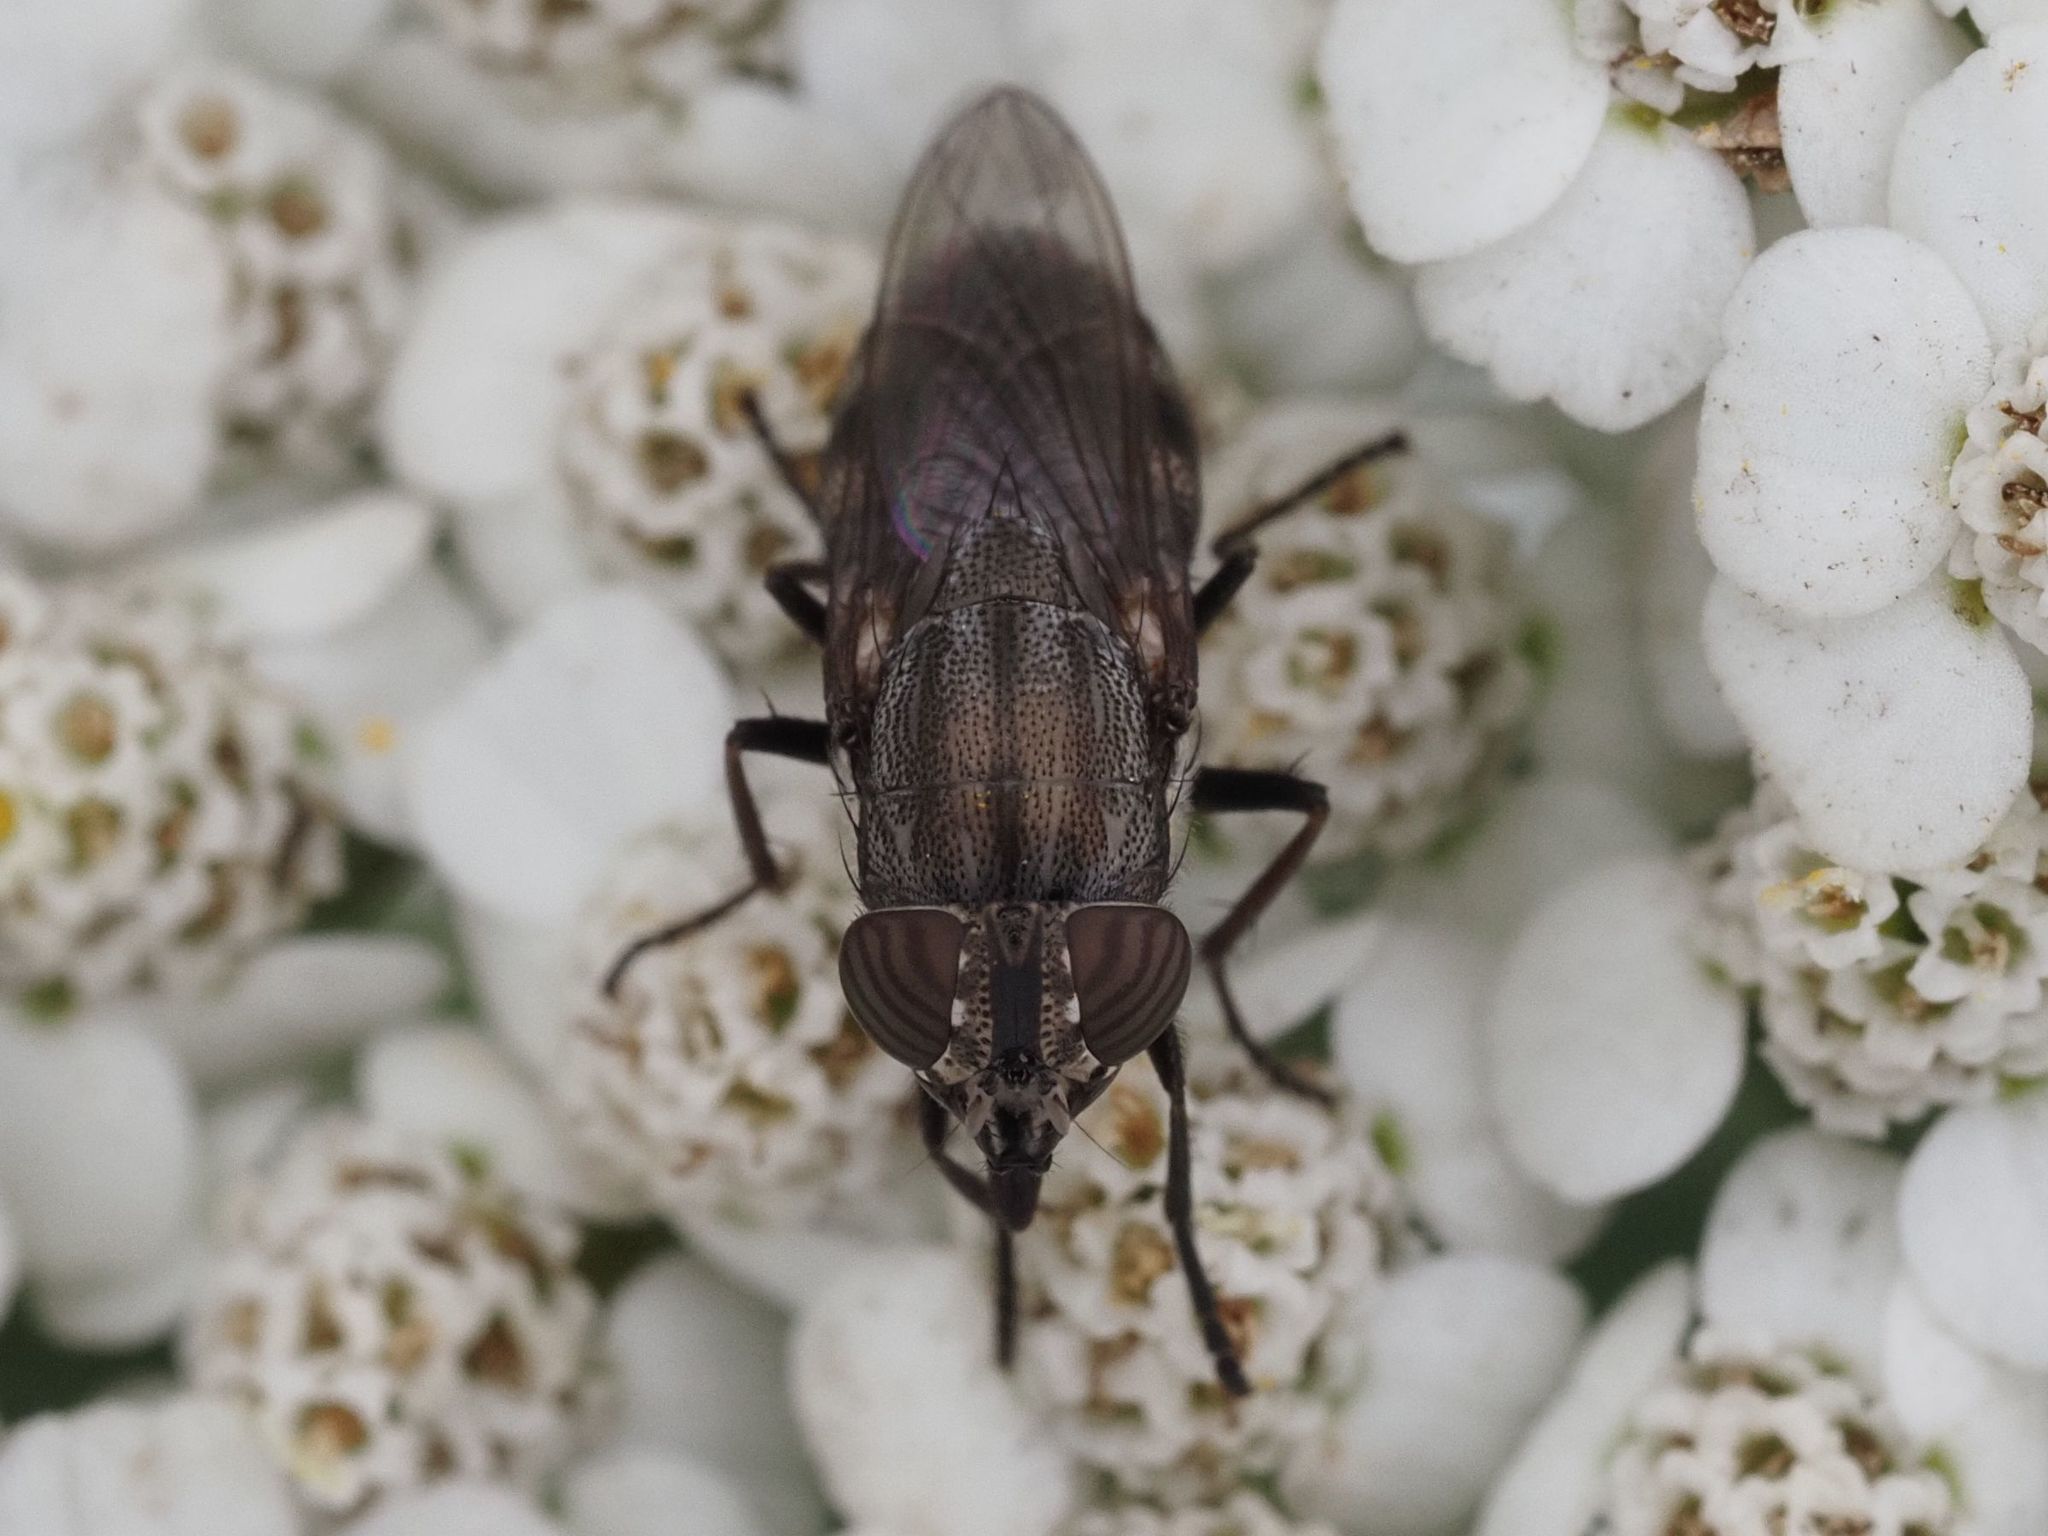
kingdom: Animalia
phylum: Arthropoda
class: Insecta
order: Diptera
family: Calliphoridae
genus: Stomorhina
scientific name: Stomorhina lunata
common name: Locust blowfly
